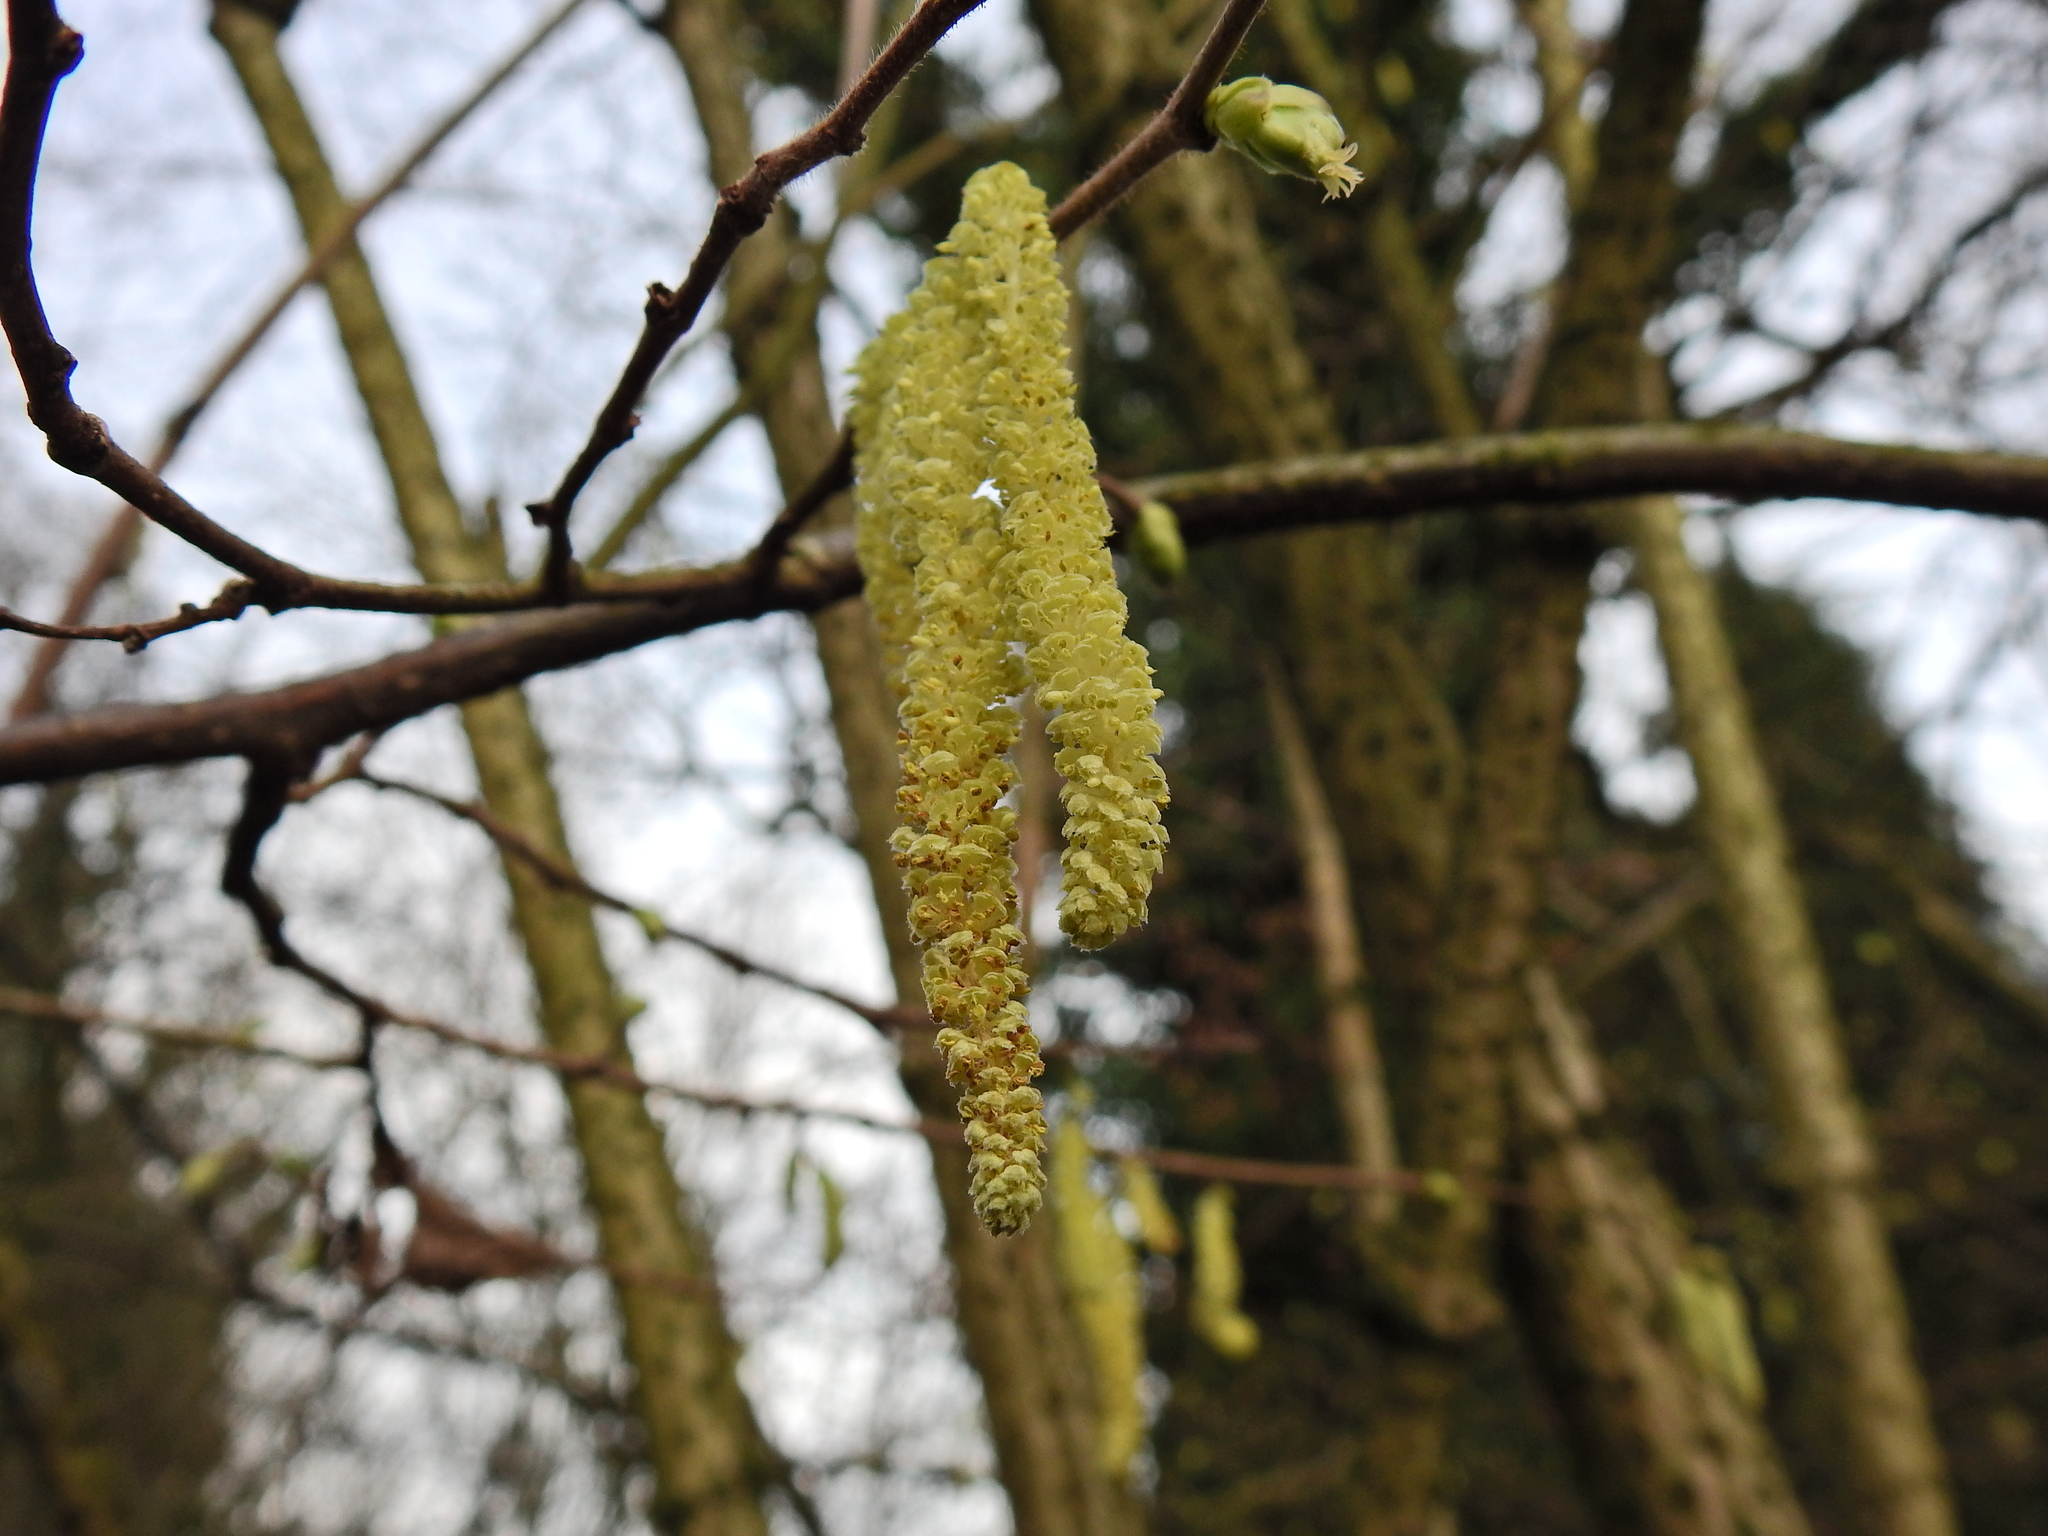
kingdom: Plantae
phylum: Tracheophyta
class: Magnoliopsida
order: Fagales
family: Betulaceae
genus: Corylus
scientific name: Corylus avellana
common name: European hazel
